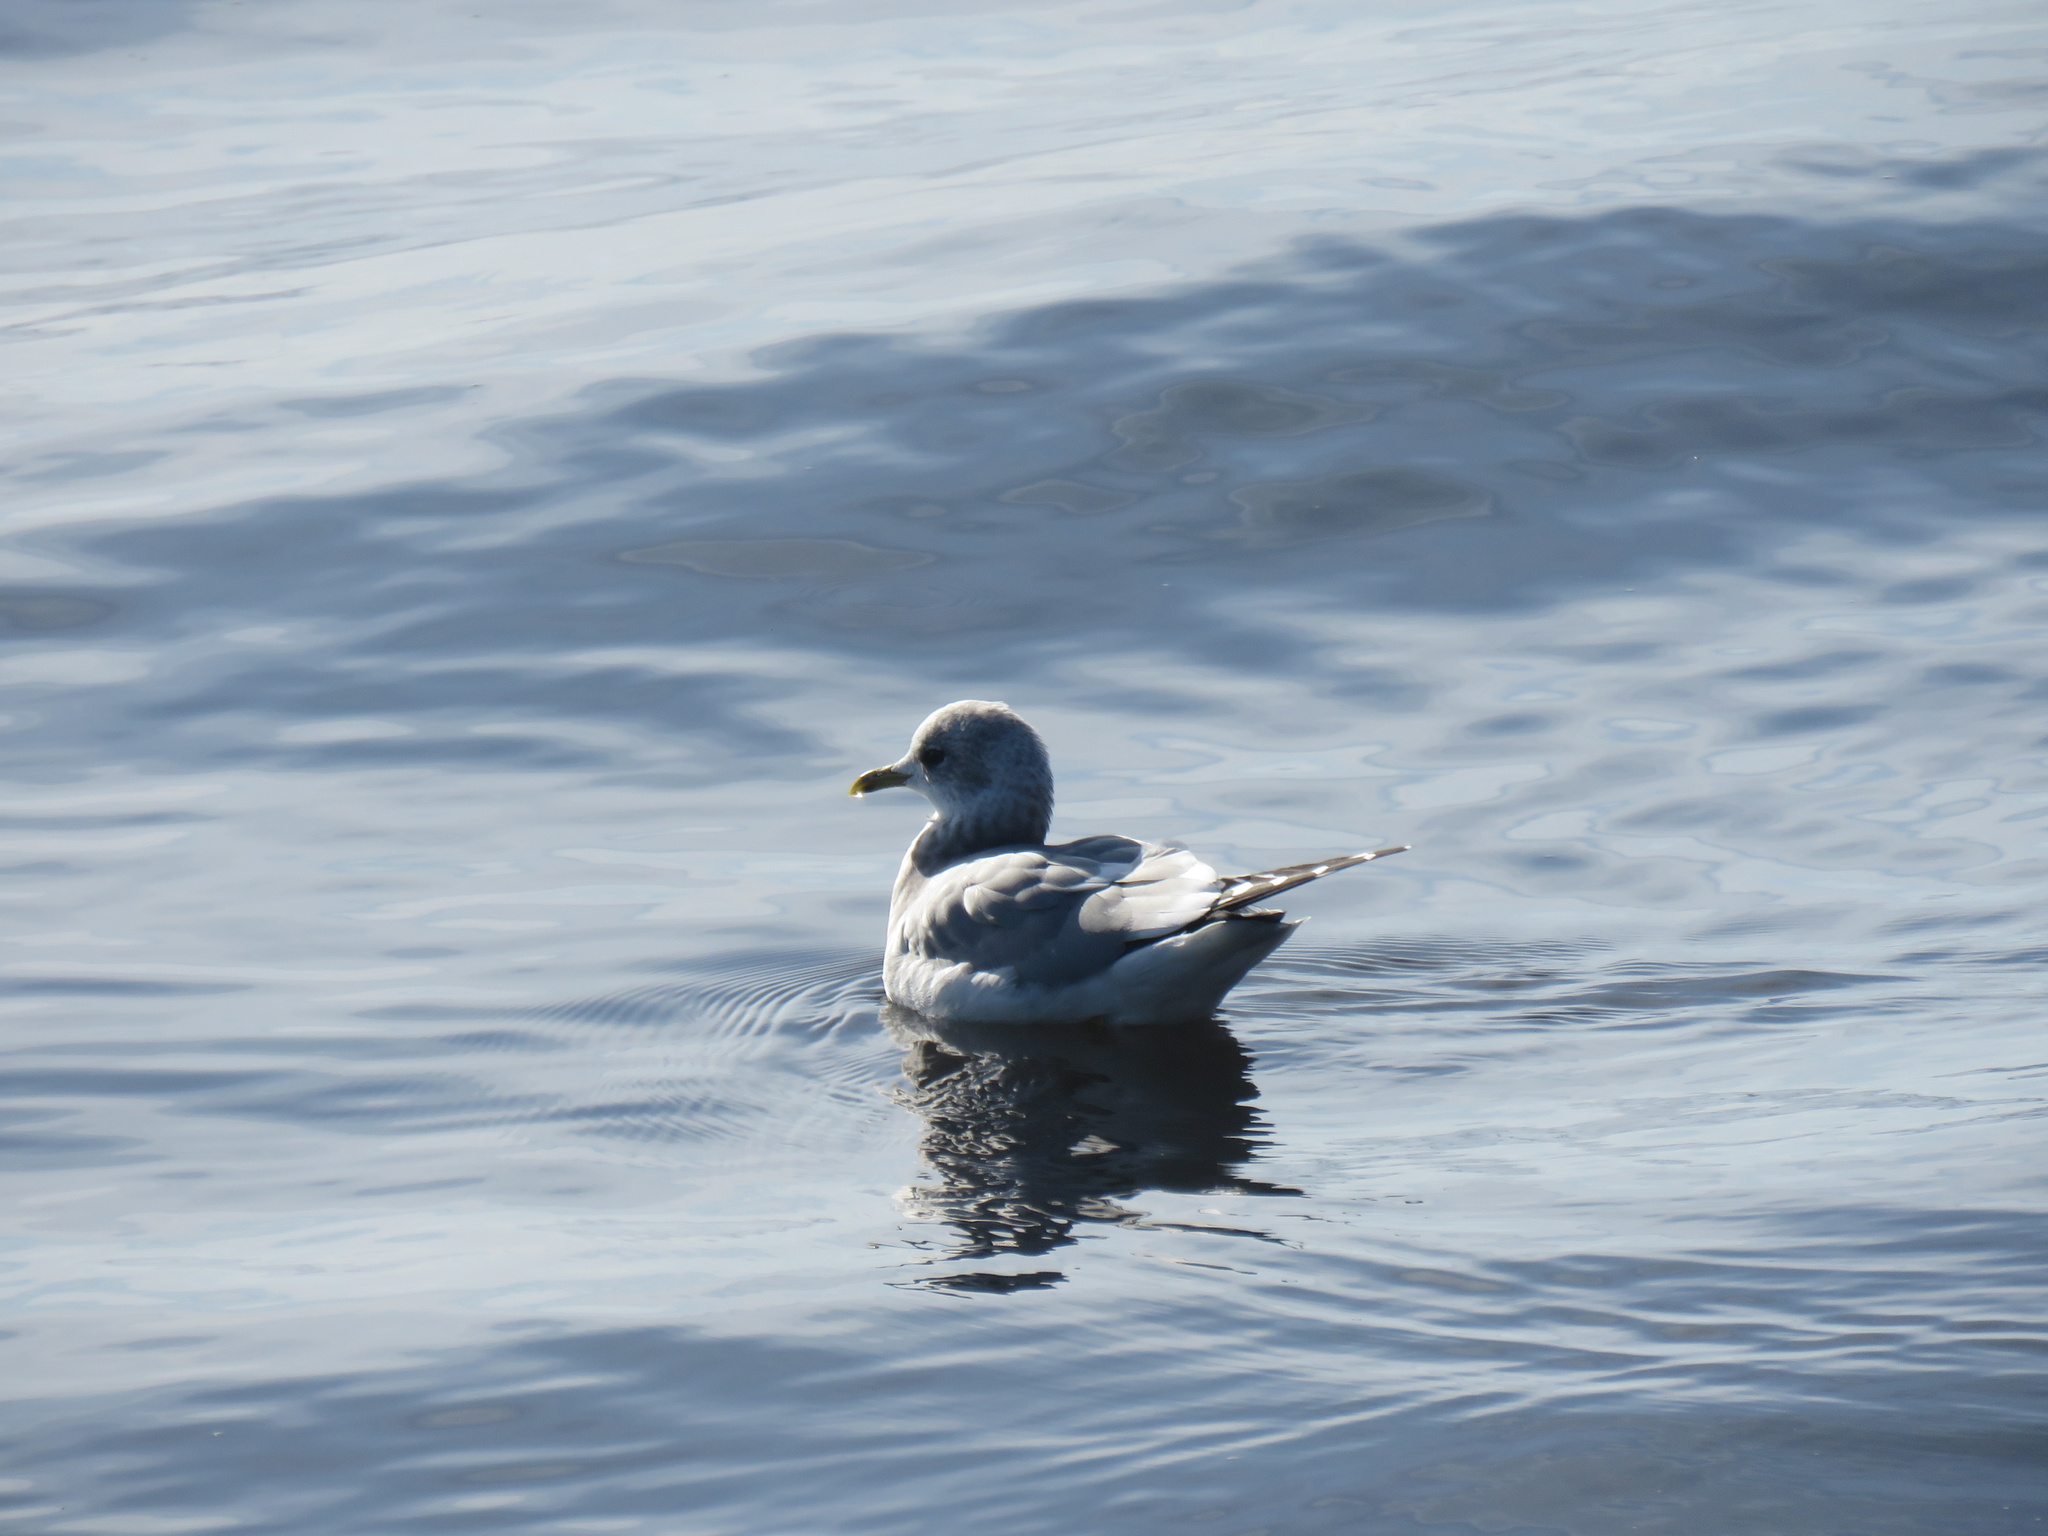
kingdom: Animalia
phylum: Chordata
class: Aves
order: Charadriiformes
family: Laridae
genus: Larus
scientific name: Larus brachyrhynchus
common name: Short-billed gull
